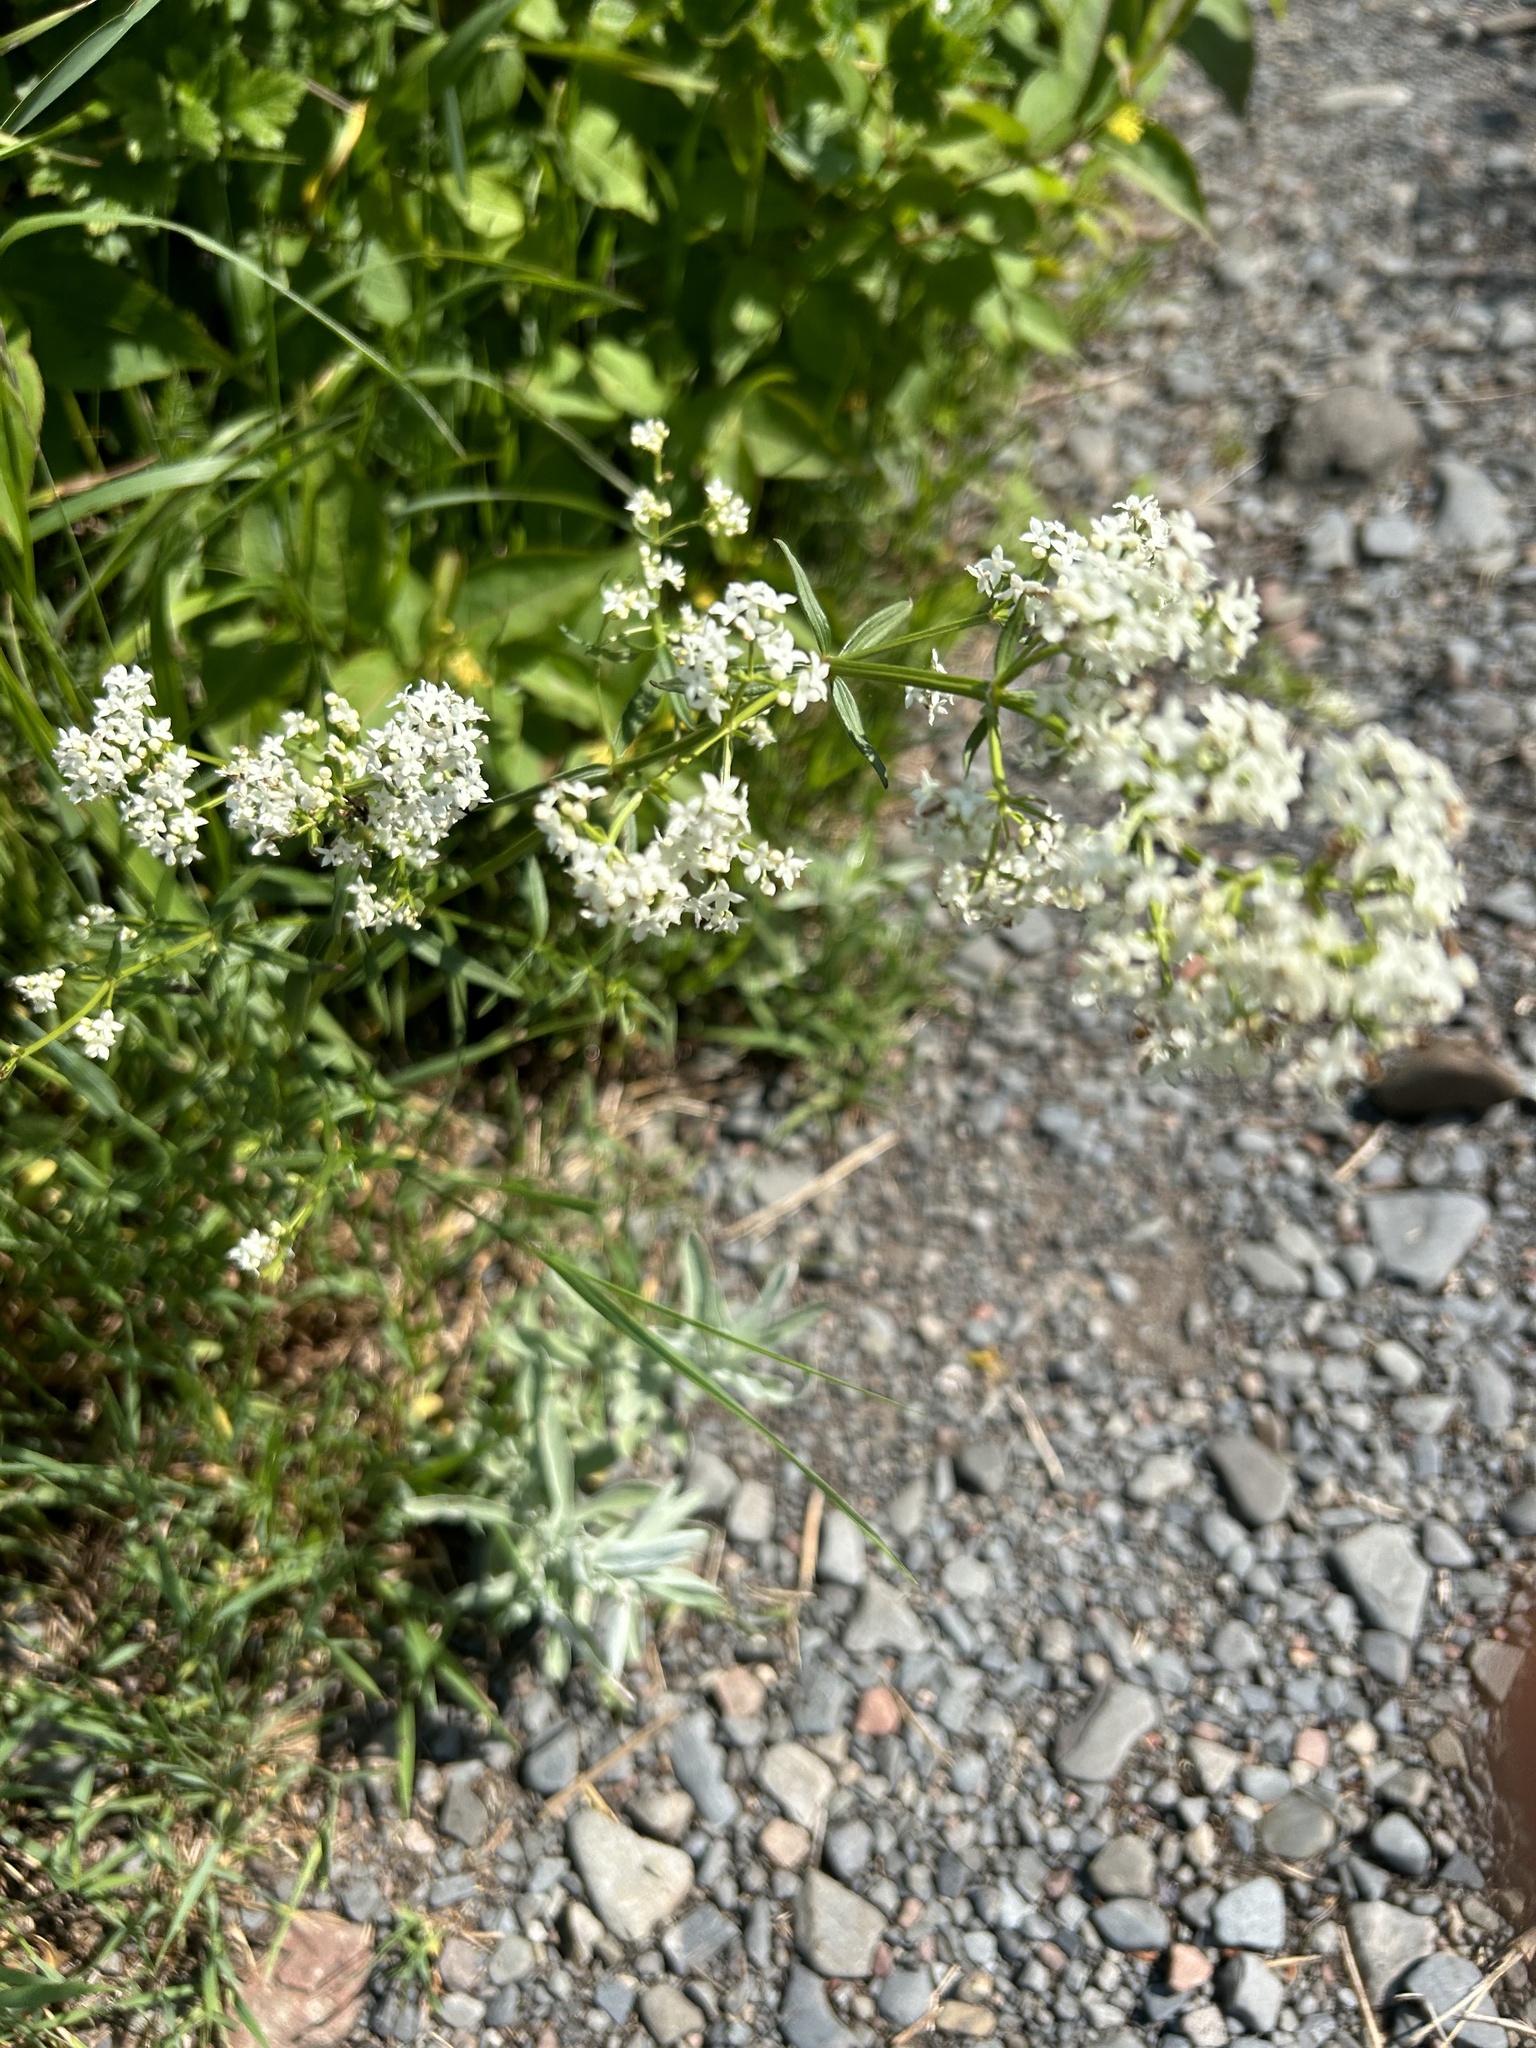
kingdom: Plantae
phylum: Tracheophyta
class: Magnoliopsida
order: Gentianales
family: Rubiaceae
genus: Galium
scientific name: Galium boreale
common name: Northern bedstraw
